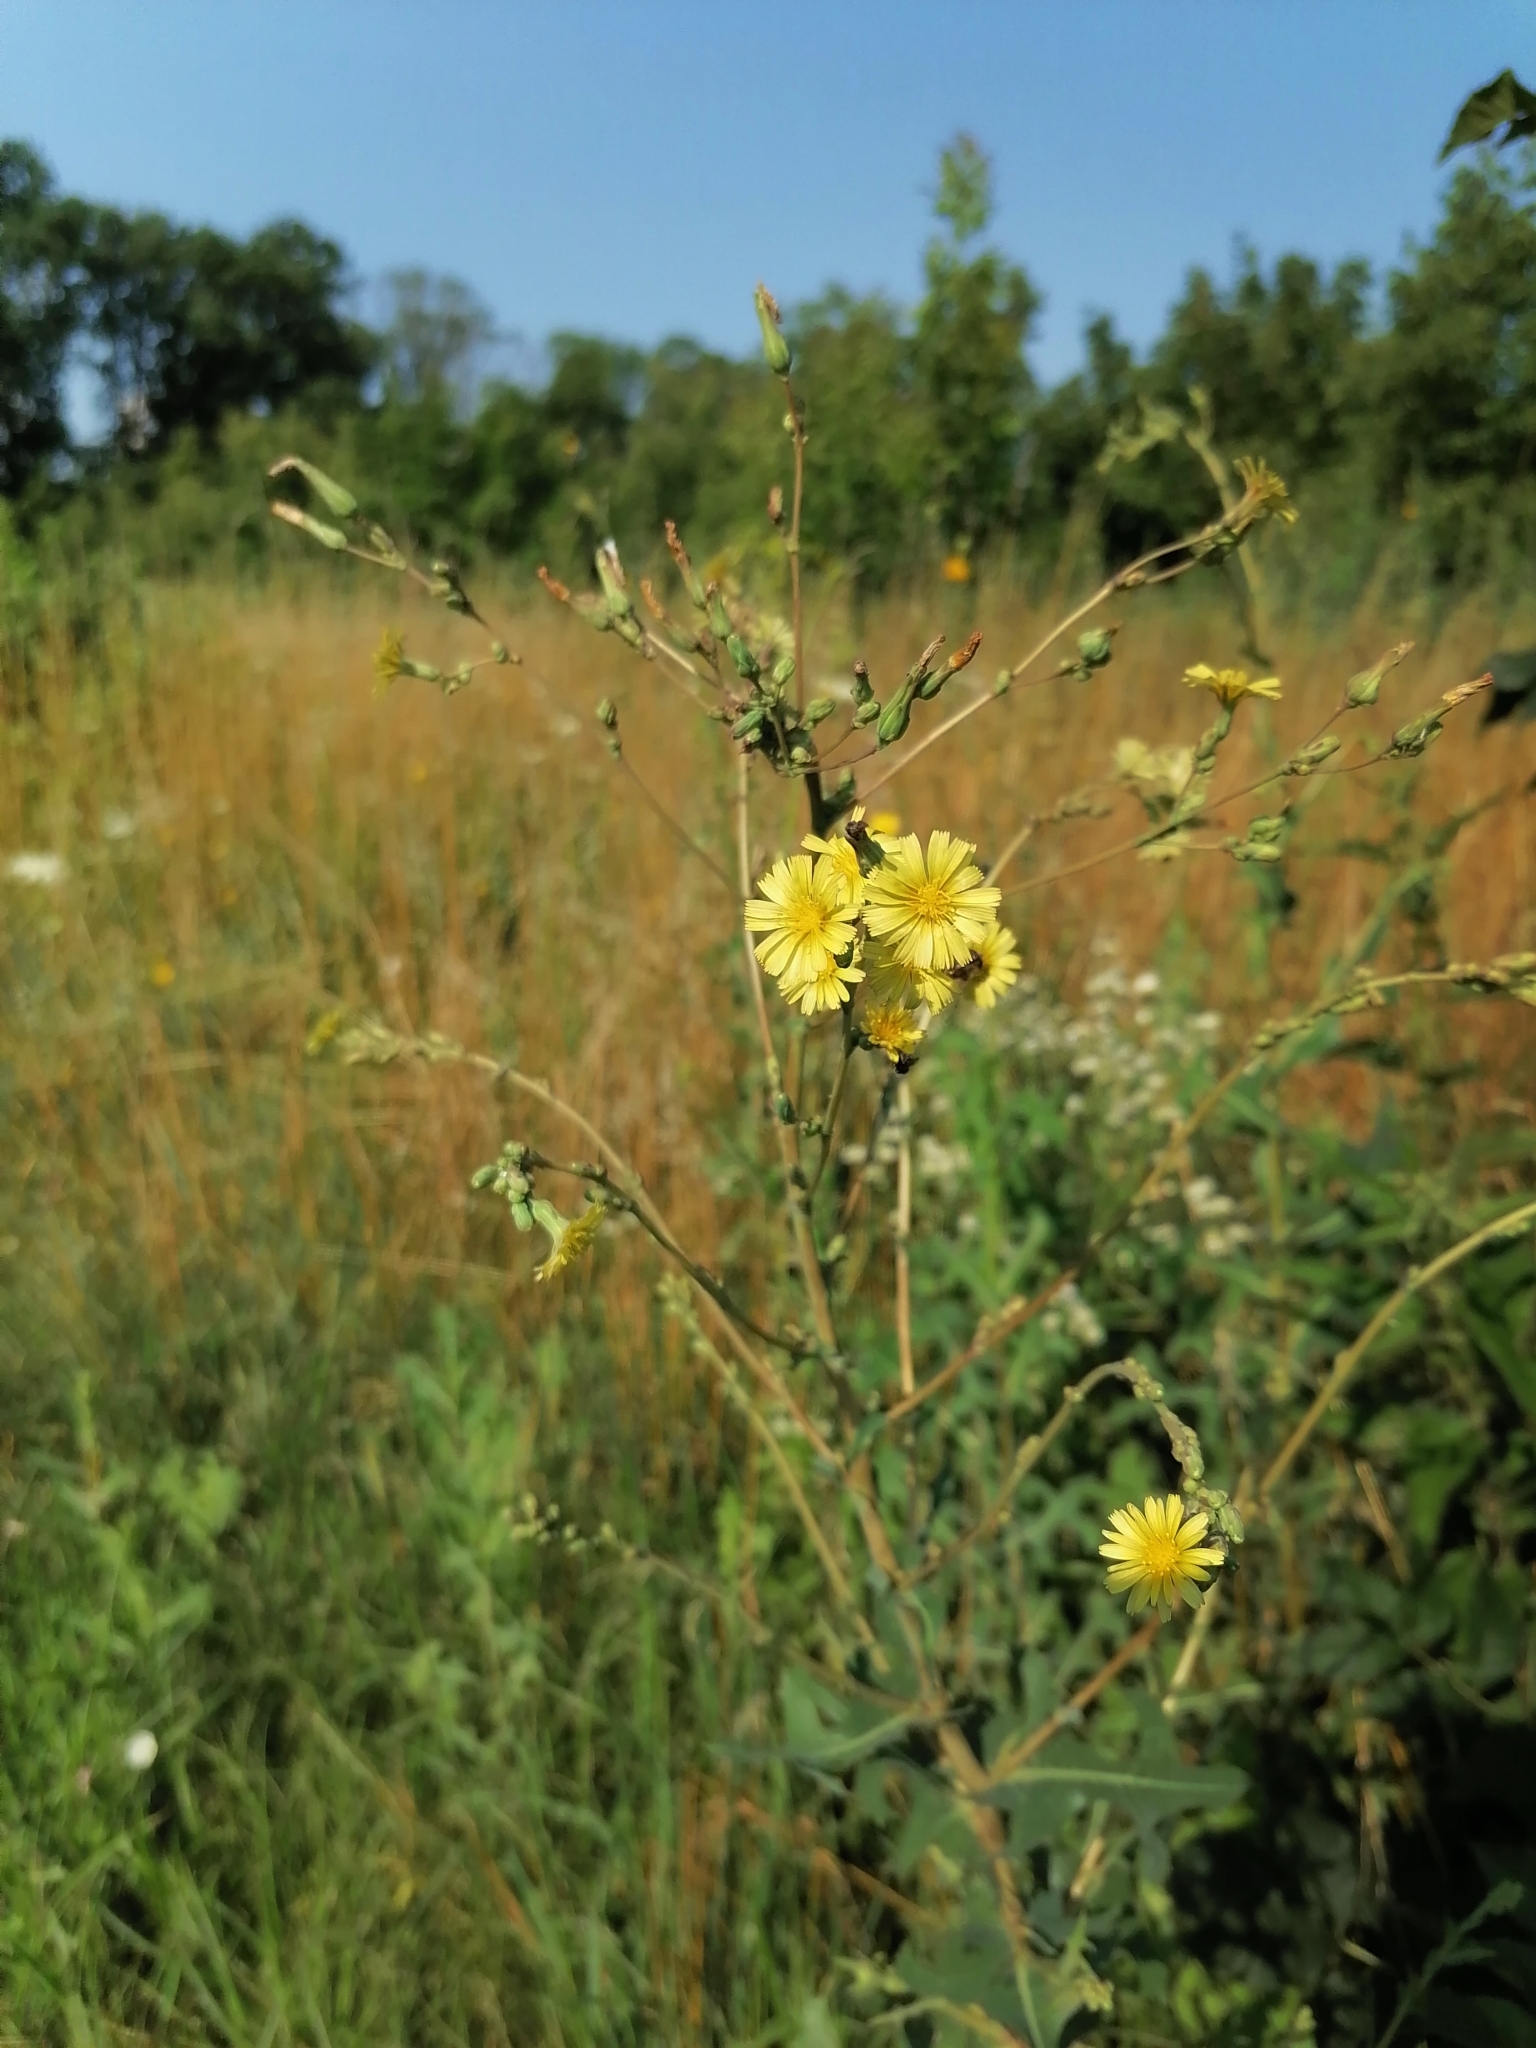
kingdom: Plantae
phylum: Tracheophyta
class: Magnoliopsida
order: Asterales
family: Asteraceae
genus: Lactuca
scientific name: Lactuca serriola
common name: Prickly lettuce
